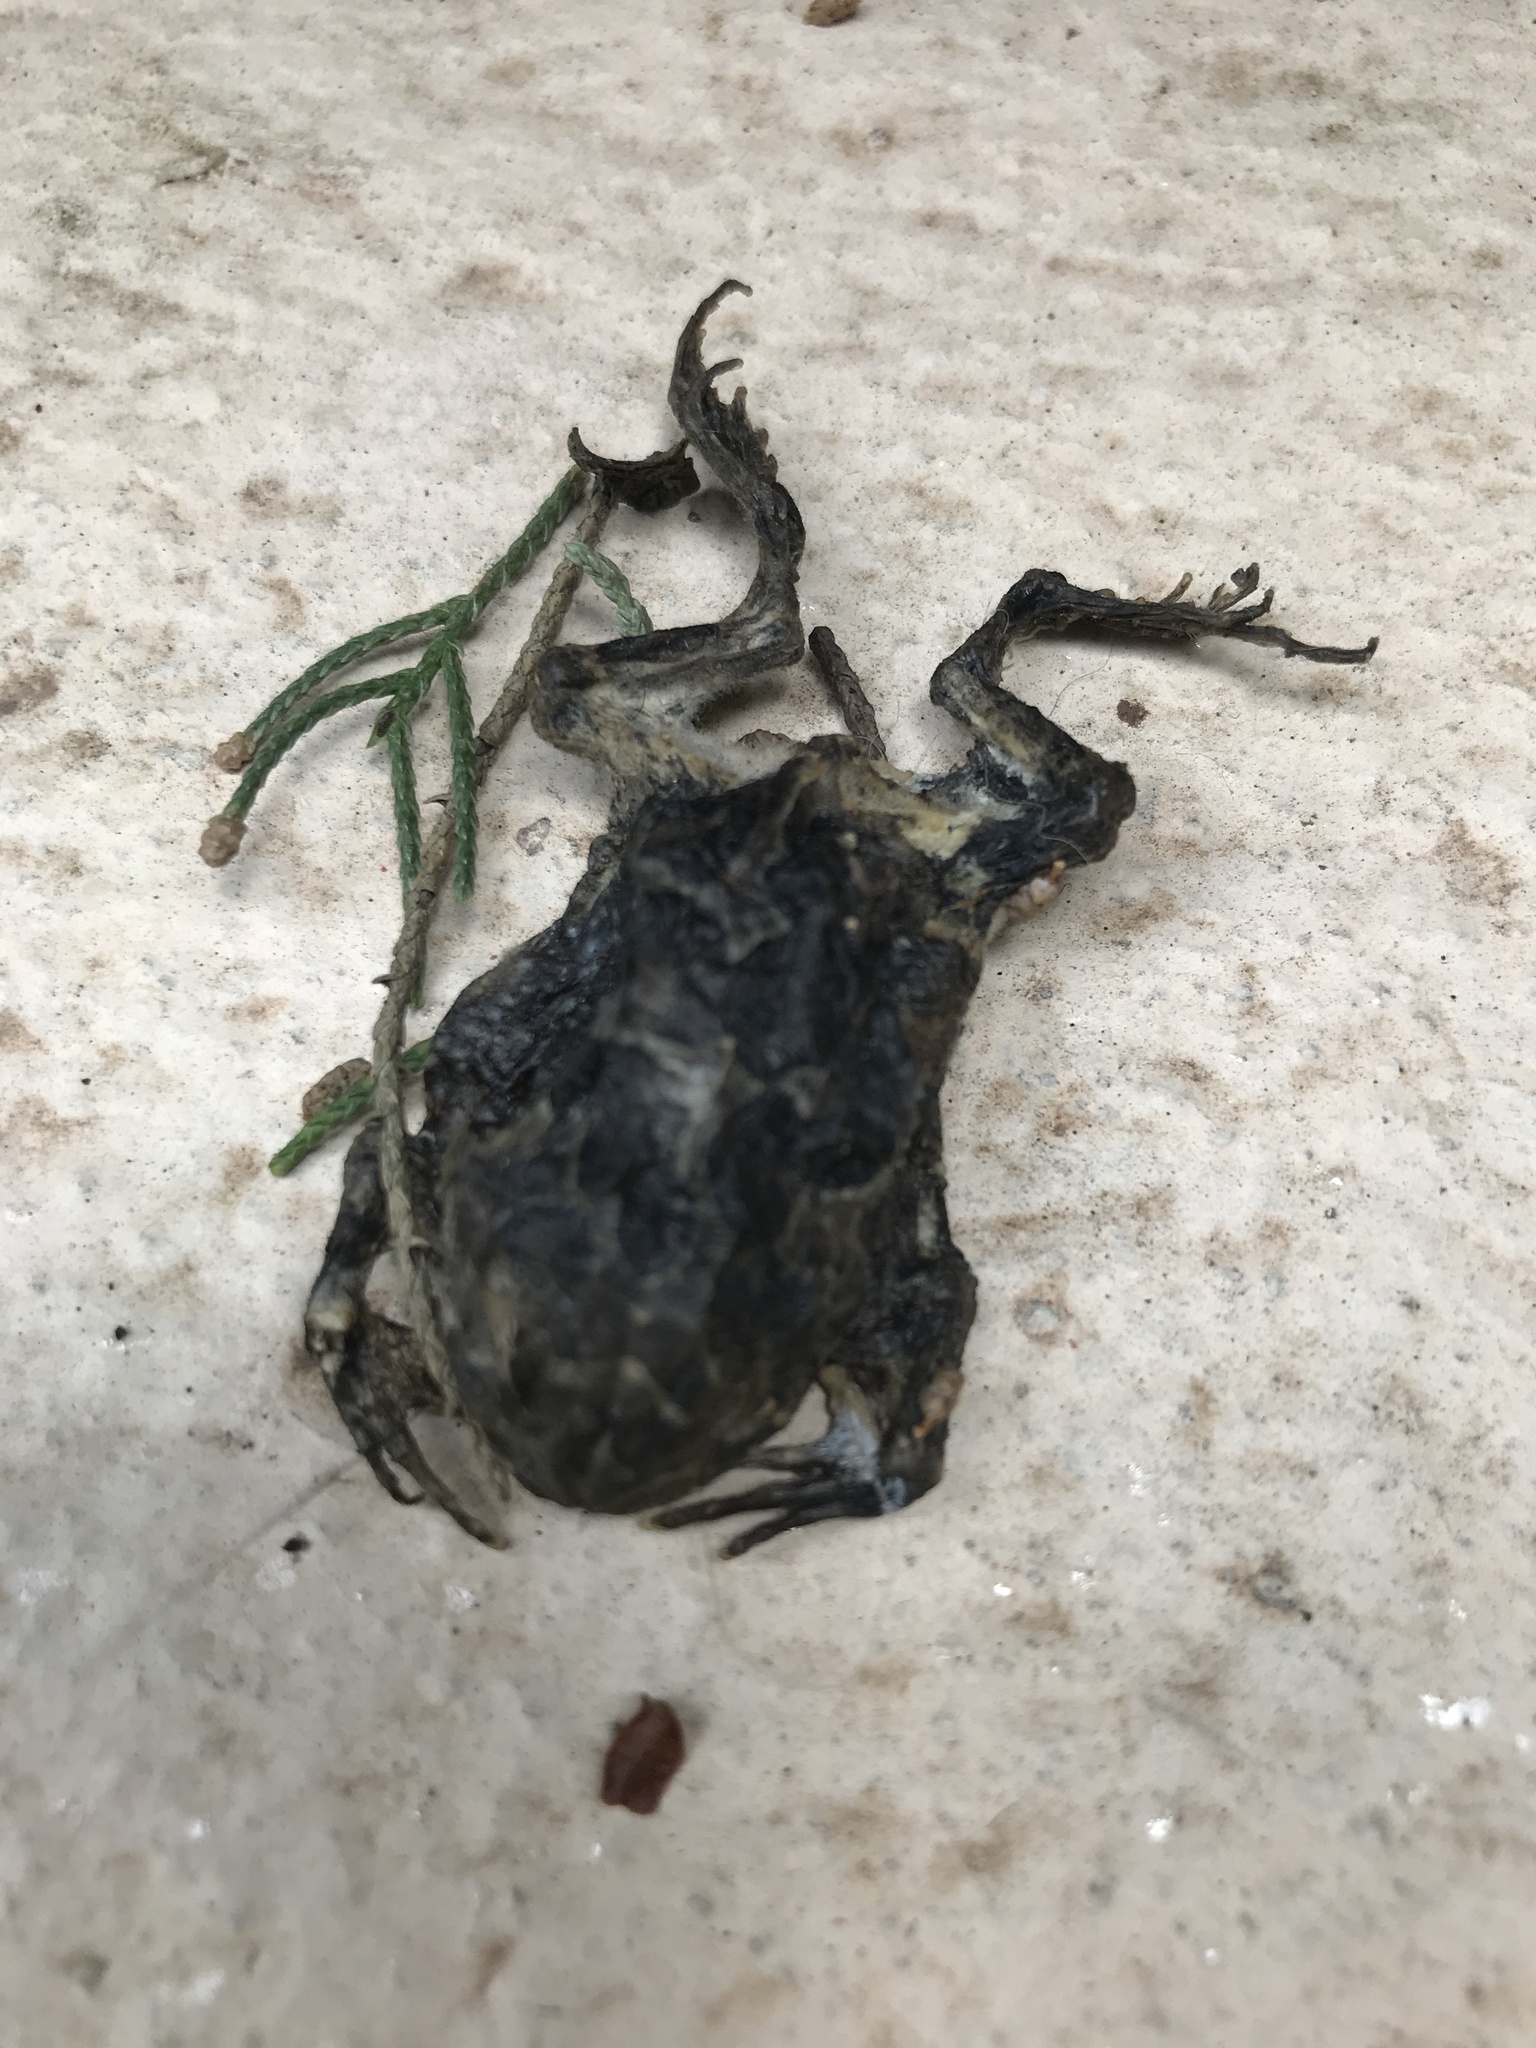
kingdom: Animalia
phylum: Chordata
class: Amphibia
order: Anura
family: Odontophrynidae
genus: Odontophrynus
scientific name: Odontophrynus
